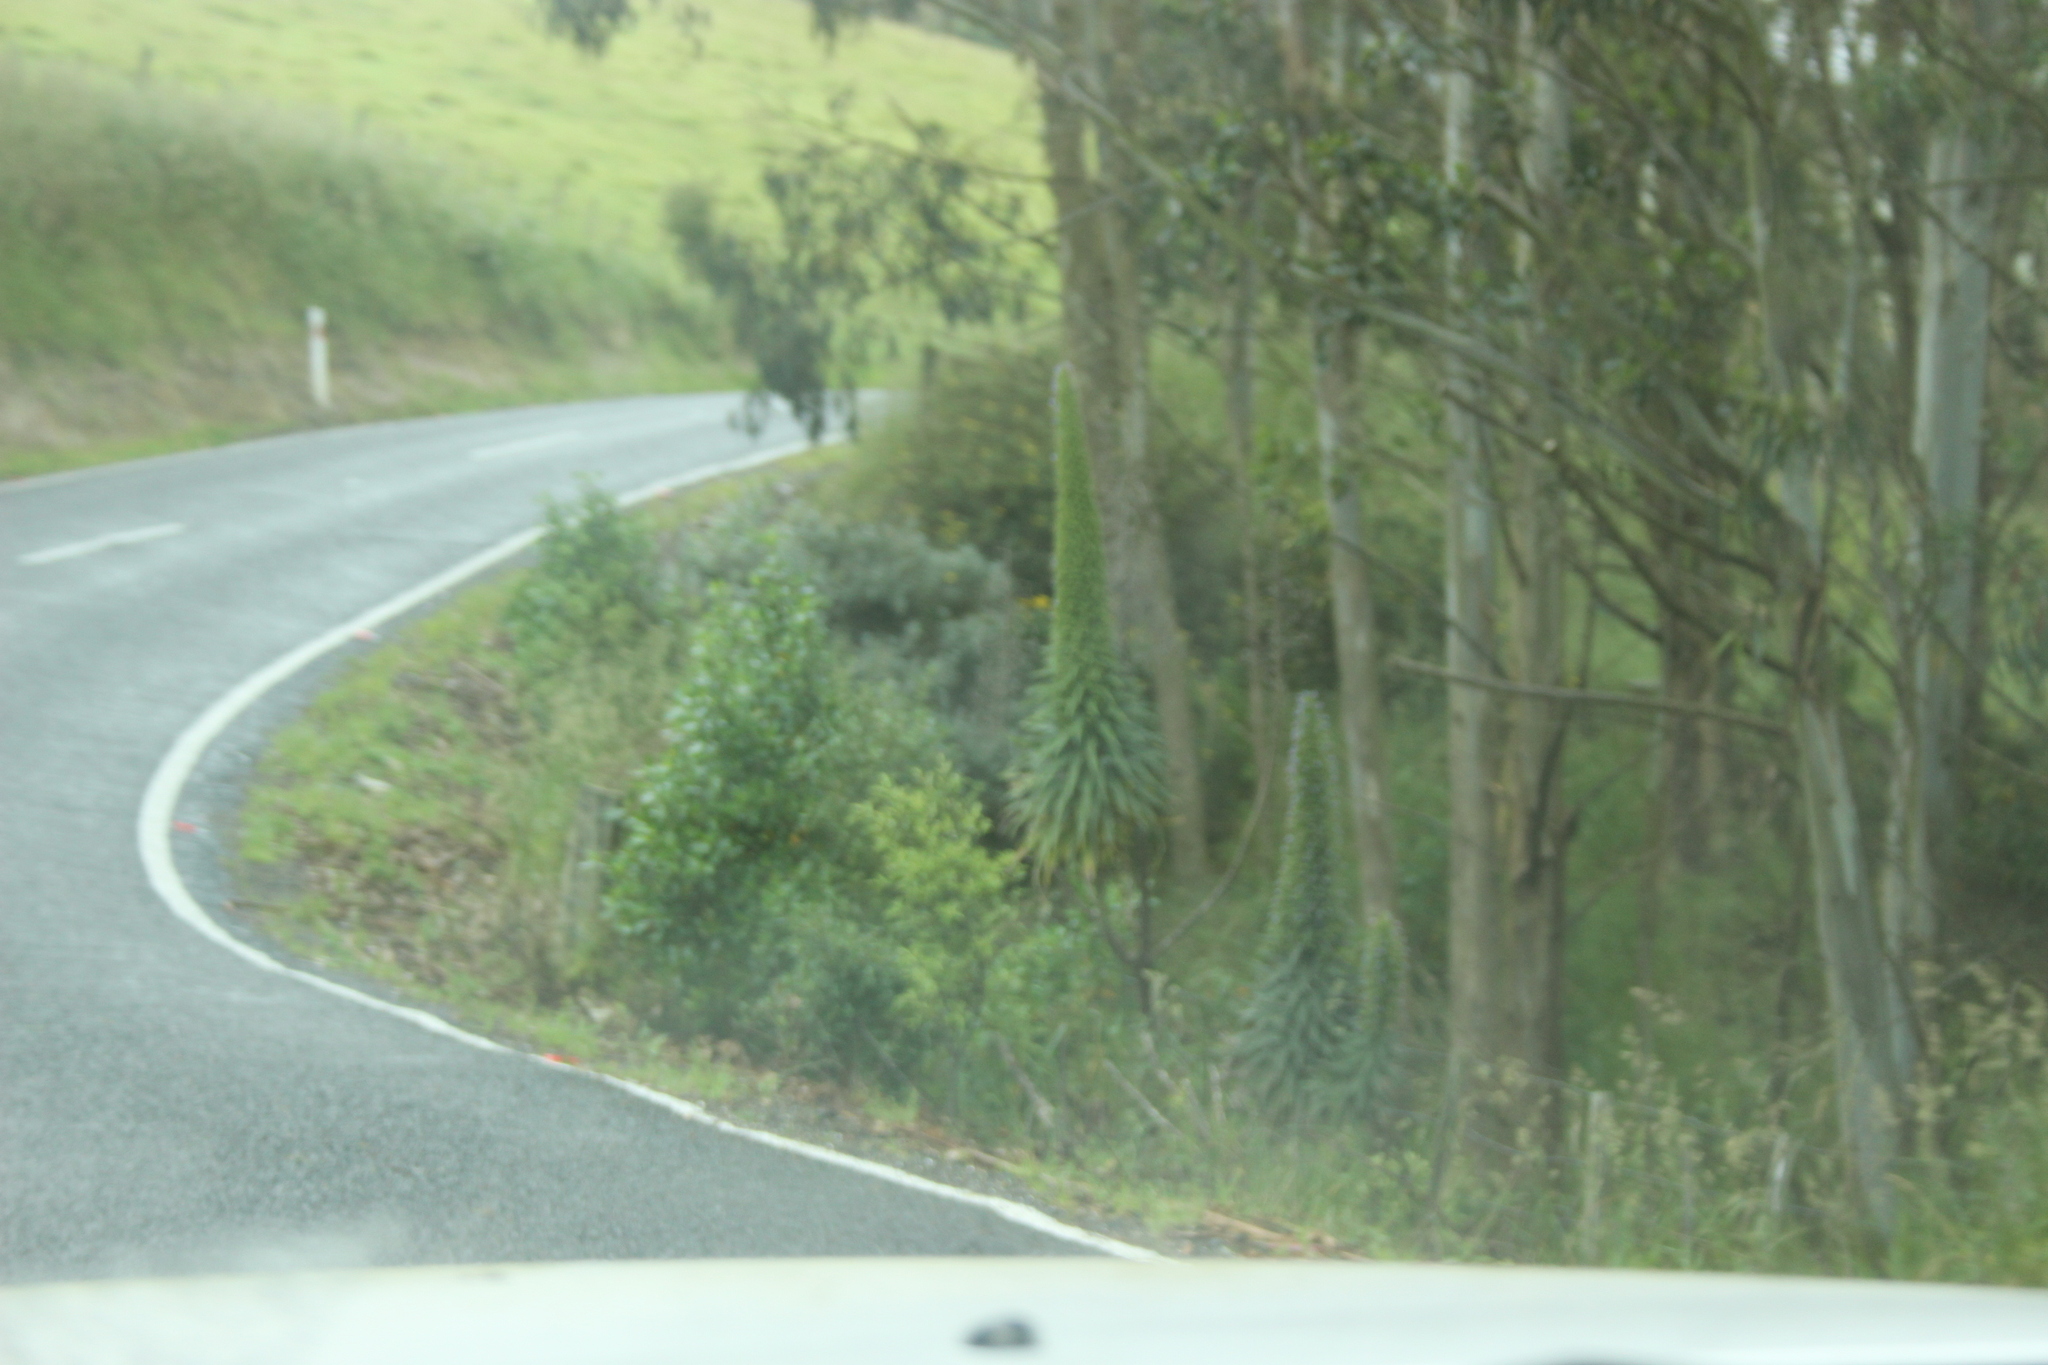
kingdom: Plantae
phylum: Tracheophyta
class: Magnoliopsida
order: Boraginales
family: Boraginaceae
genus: Echium
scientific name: Echium pininana
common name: Giant viper's-bugloss
